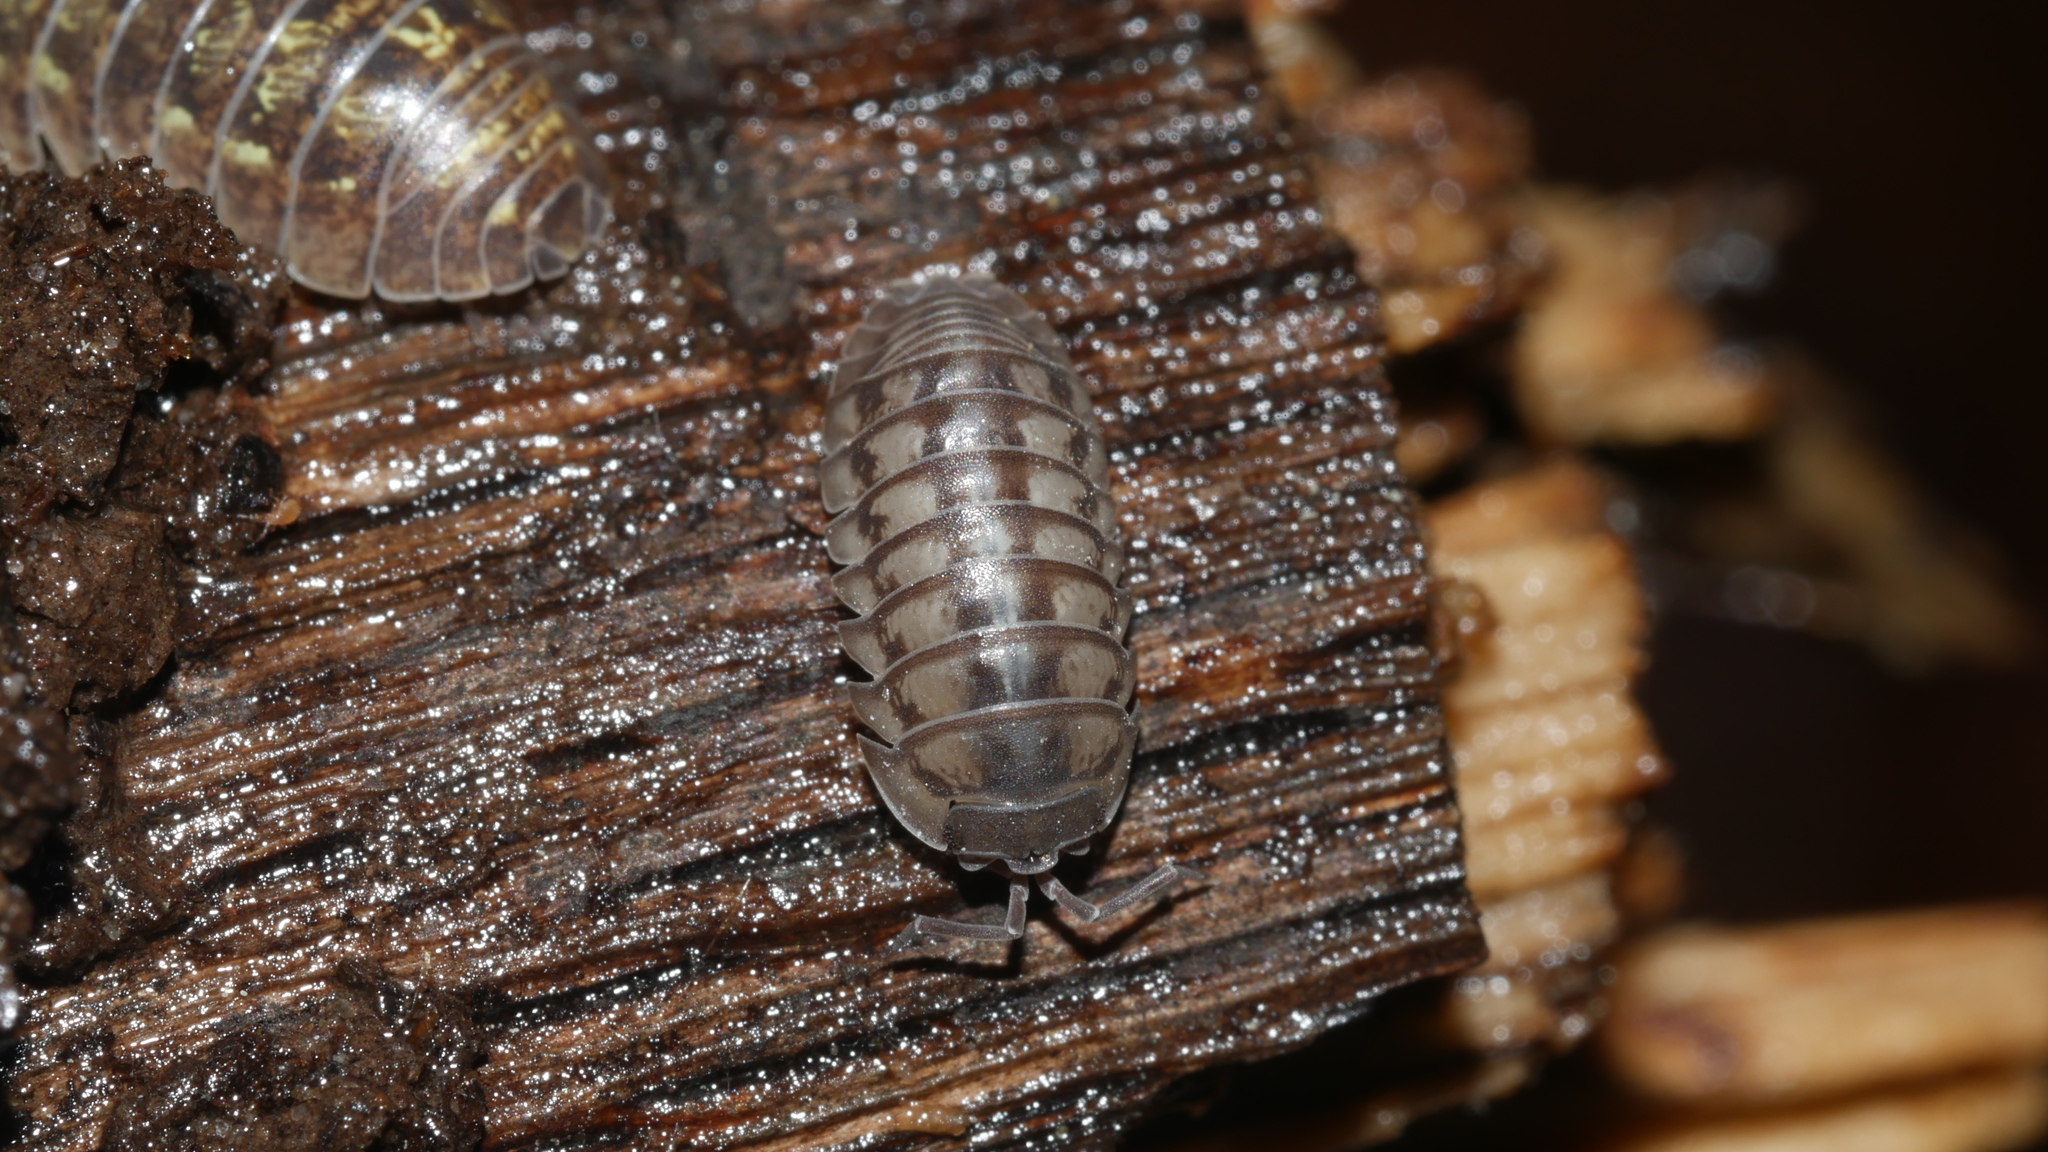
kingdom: Animalia
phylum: Arthropoda
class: Malacostraca
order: Isopoda
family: Armadillidiidae
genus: Armadillidium
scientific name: Armadillidium nasatum
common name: Isopod
